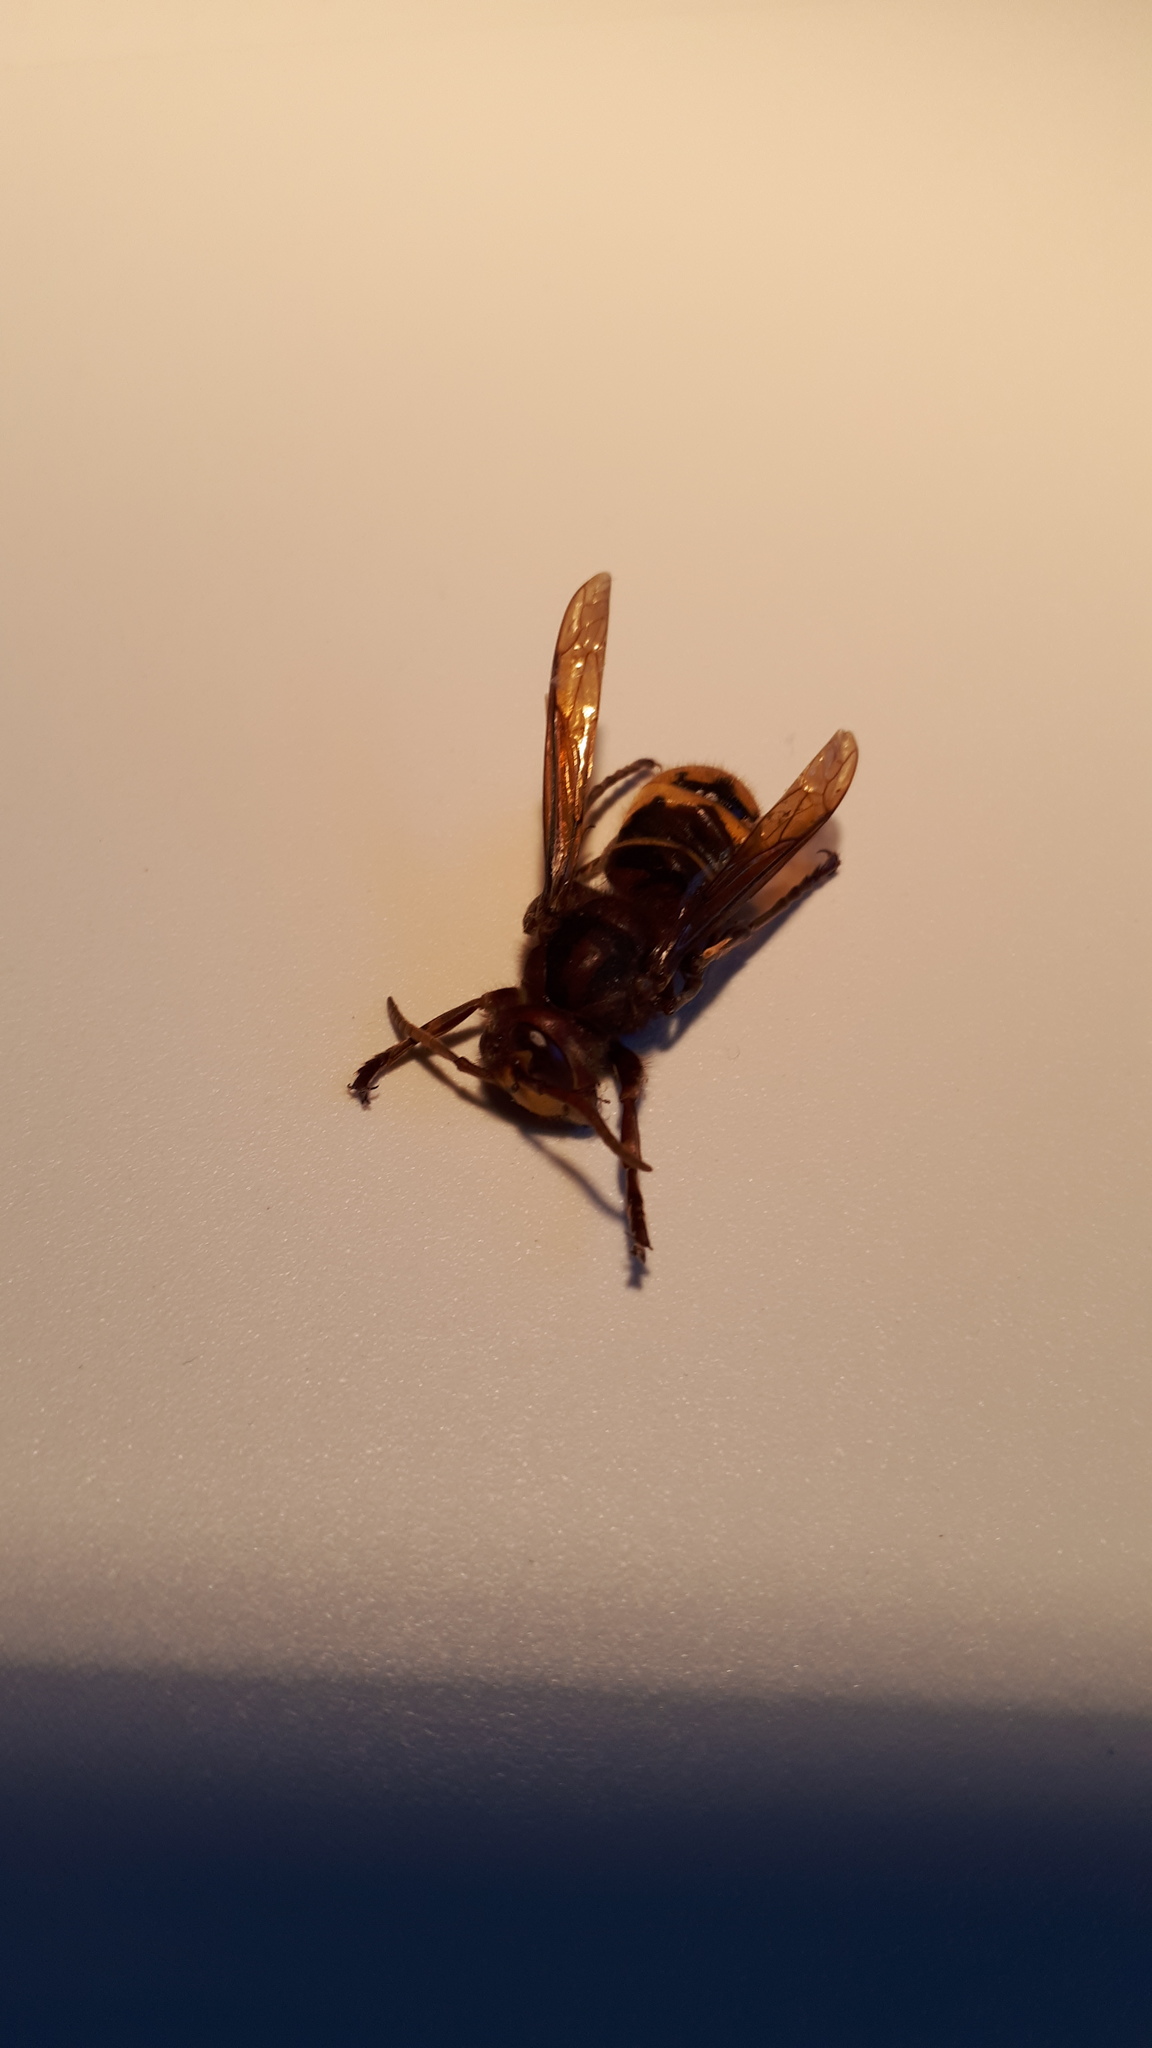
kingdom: Animalia
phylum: Arthropoda
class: Insecta
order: Hymenoptera
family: Vespidae
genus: Vespa
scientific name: Vespa crabro
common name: Hornet
